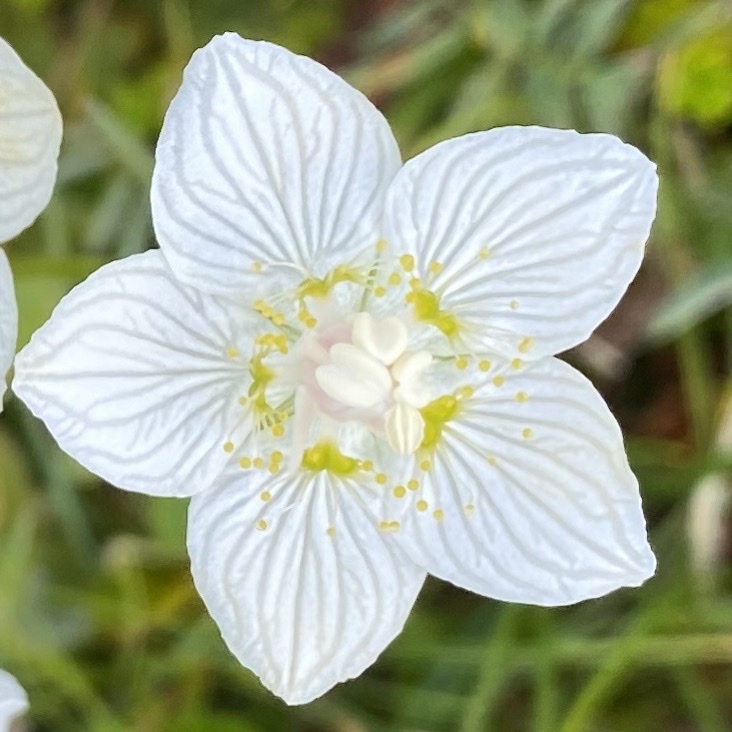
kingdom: Plantae
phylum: Tracheophyta
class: Magnoliopsida
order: Celastrales
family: Parnassiaceae
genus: Parnassia
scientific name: Parnassia palustris
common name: Grass-of-parnassus
